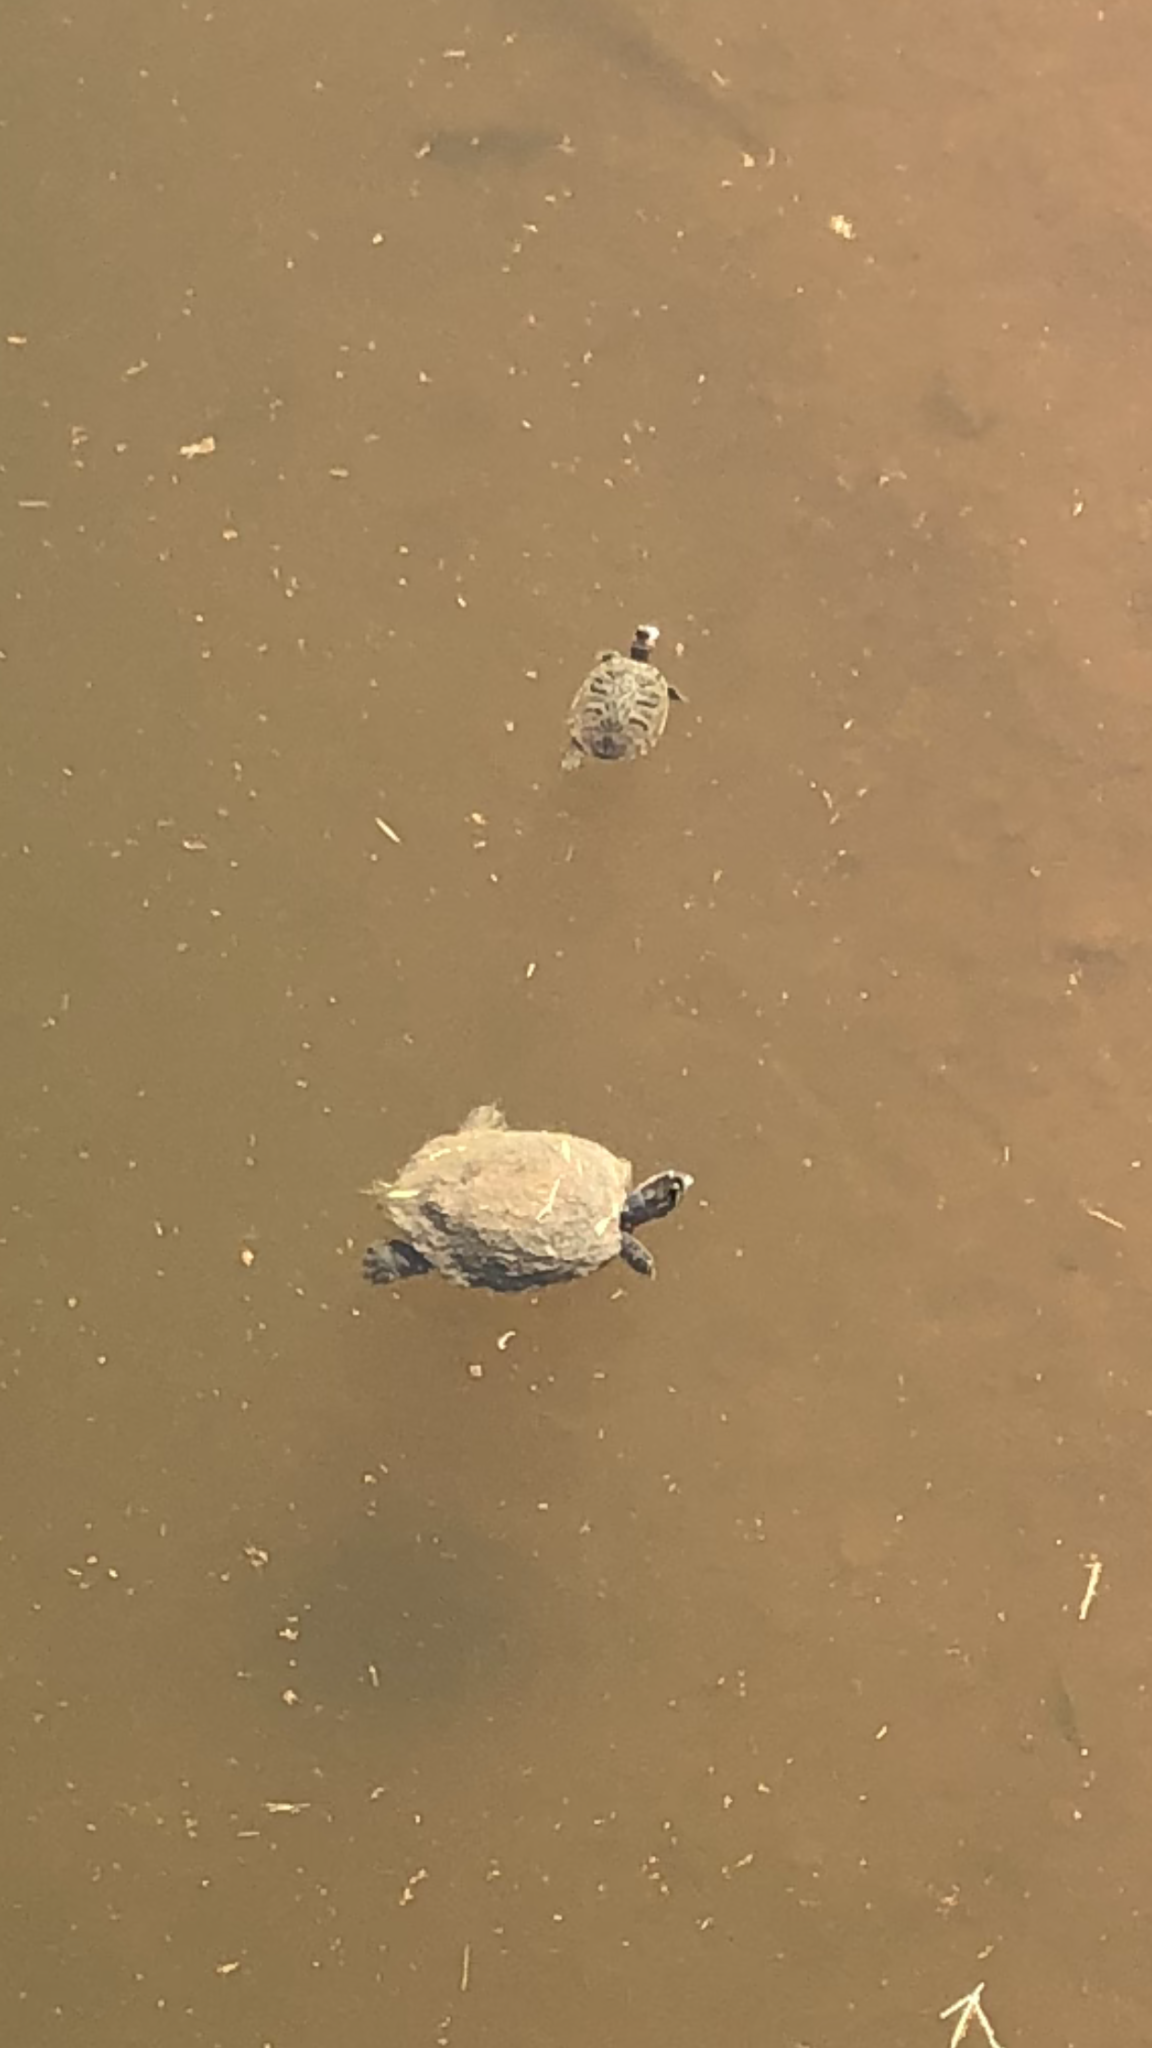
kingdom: Animalia
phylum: Chordata
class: Testudines
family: Emydidae
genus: Trachemys
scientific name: Trachemys scripta
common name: Slider
